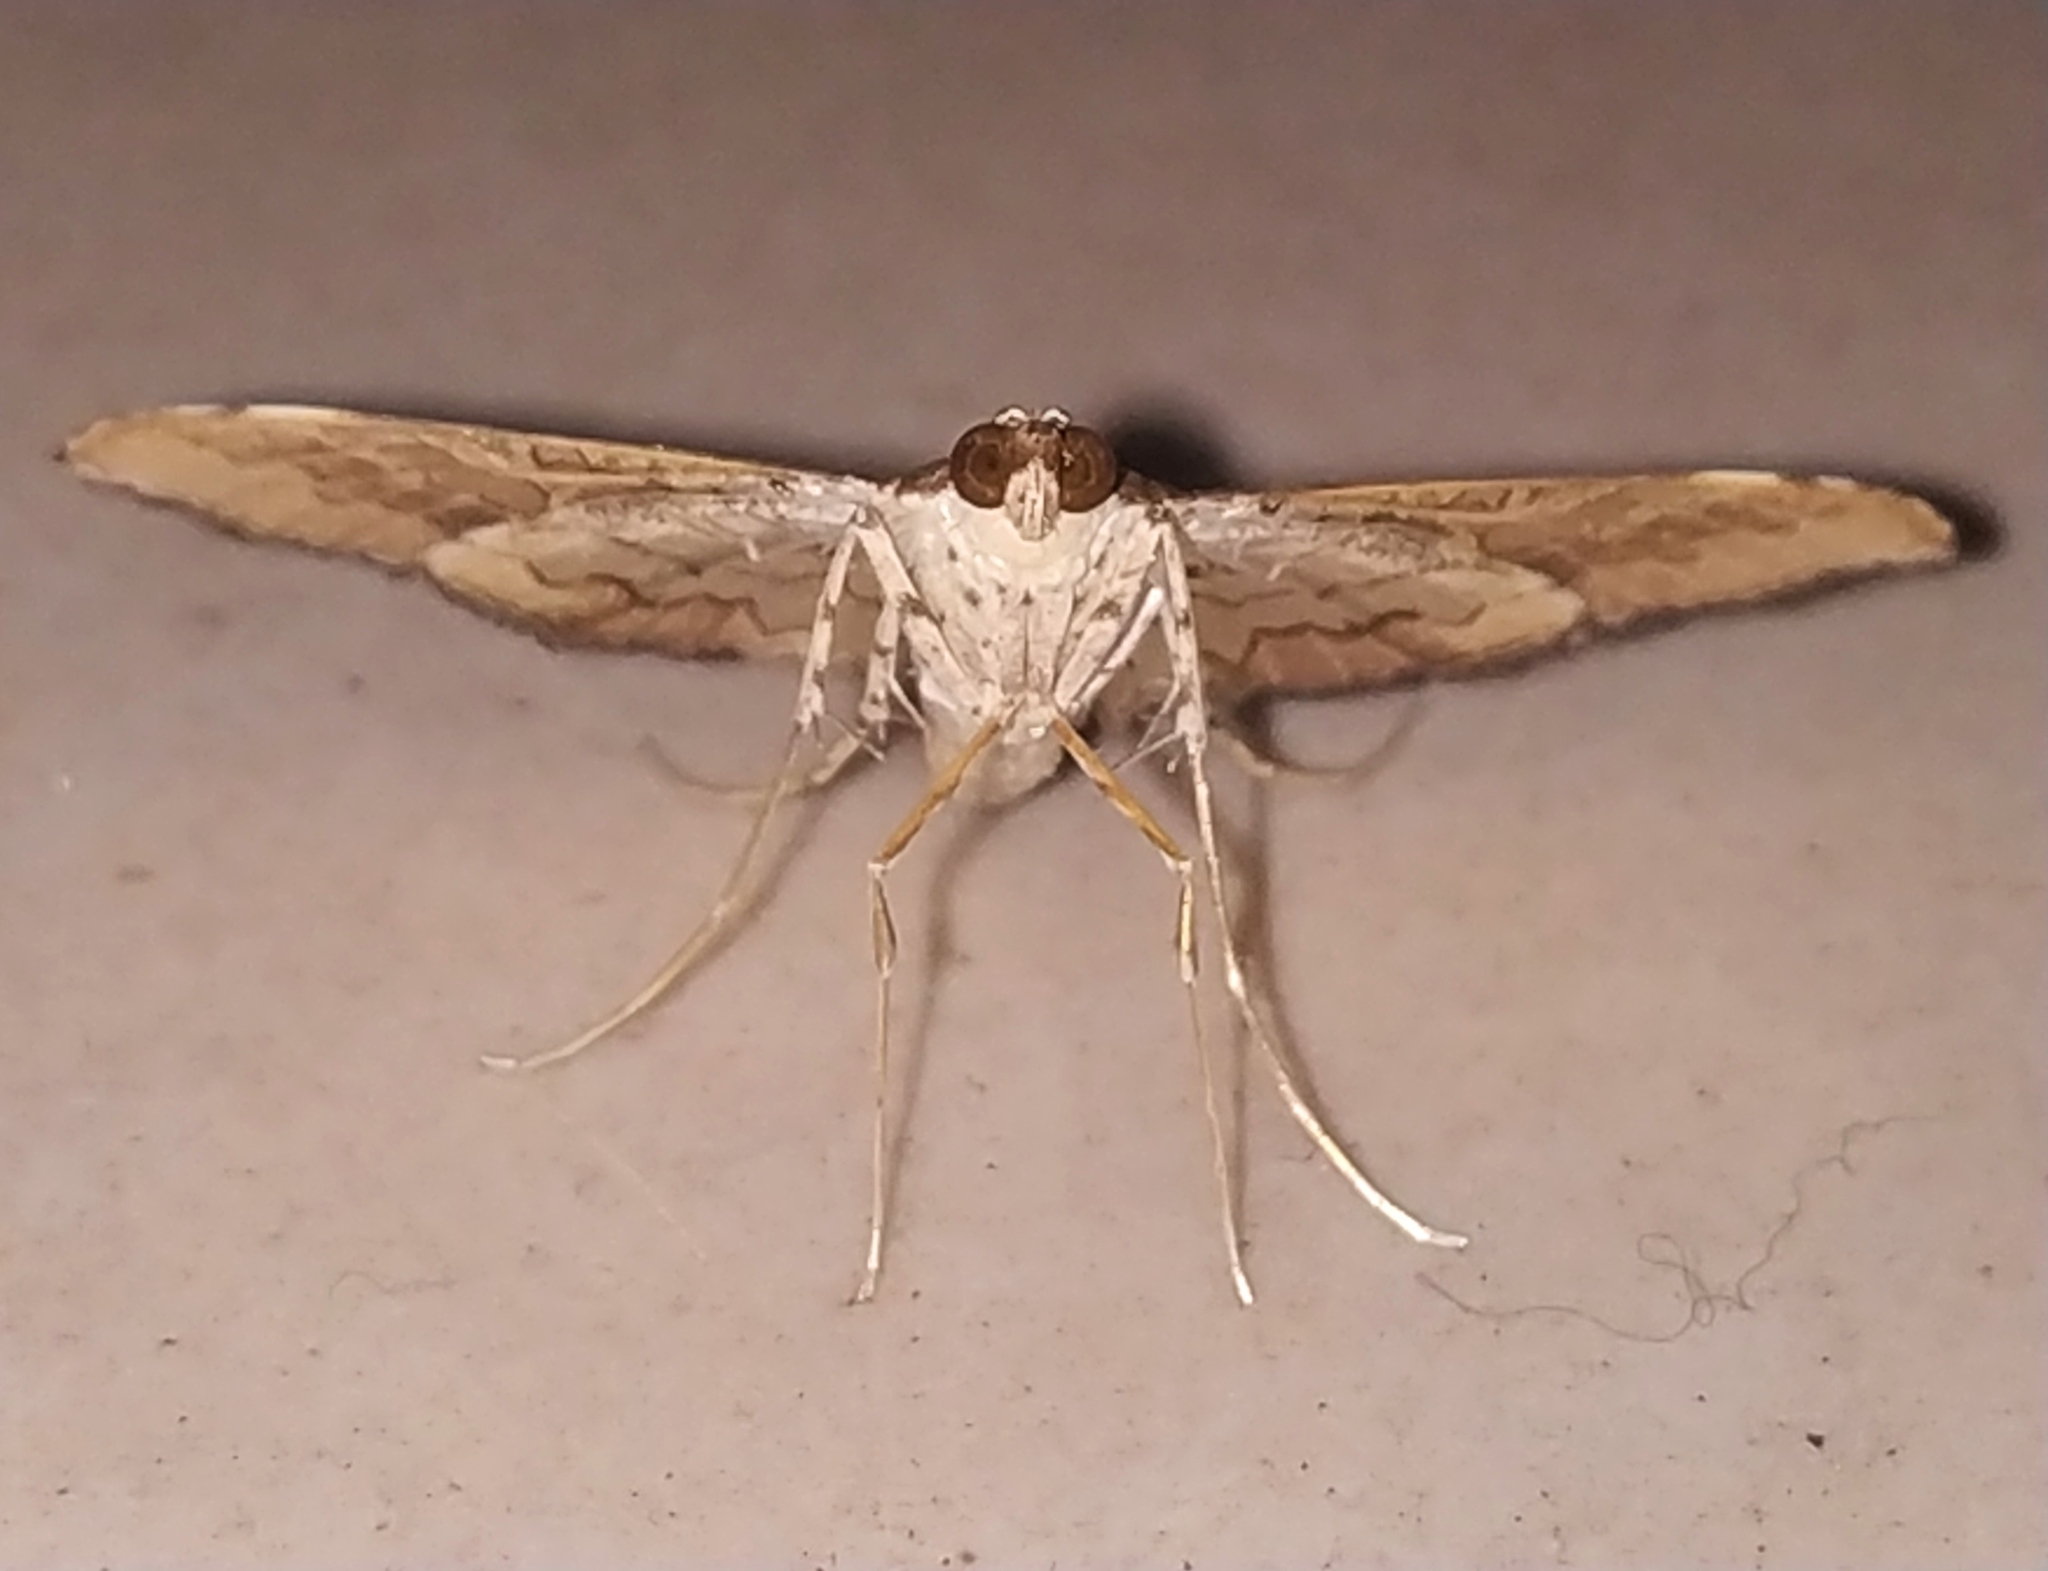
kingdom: Animalia
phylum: Arthropoda
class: Insecta
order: Lepidoptera
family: Crambidae
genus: Maruca
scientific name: Maruca vitrata
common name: Maruca pod borer
